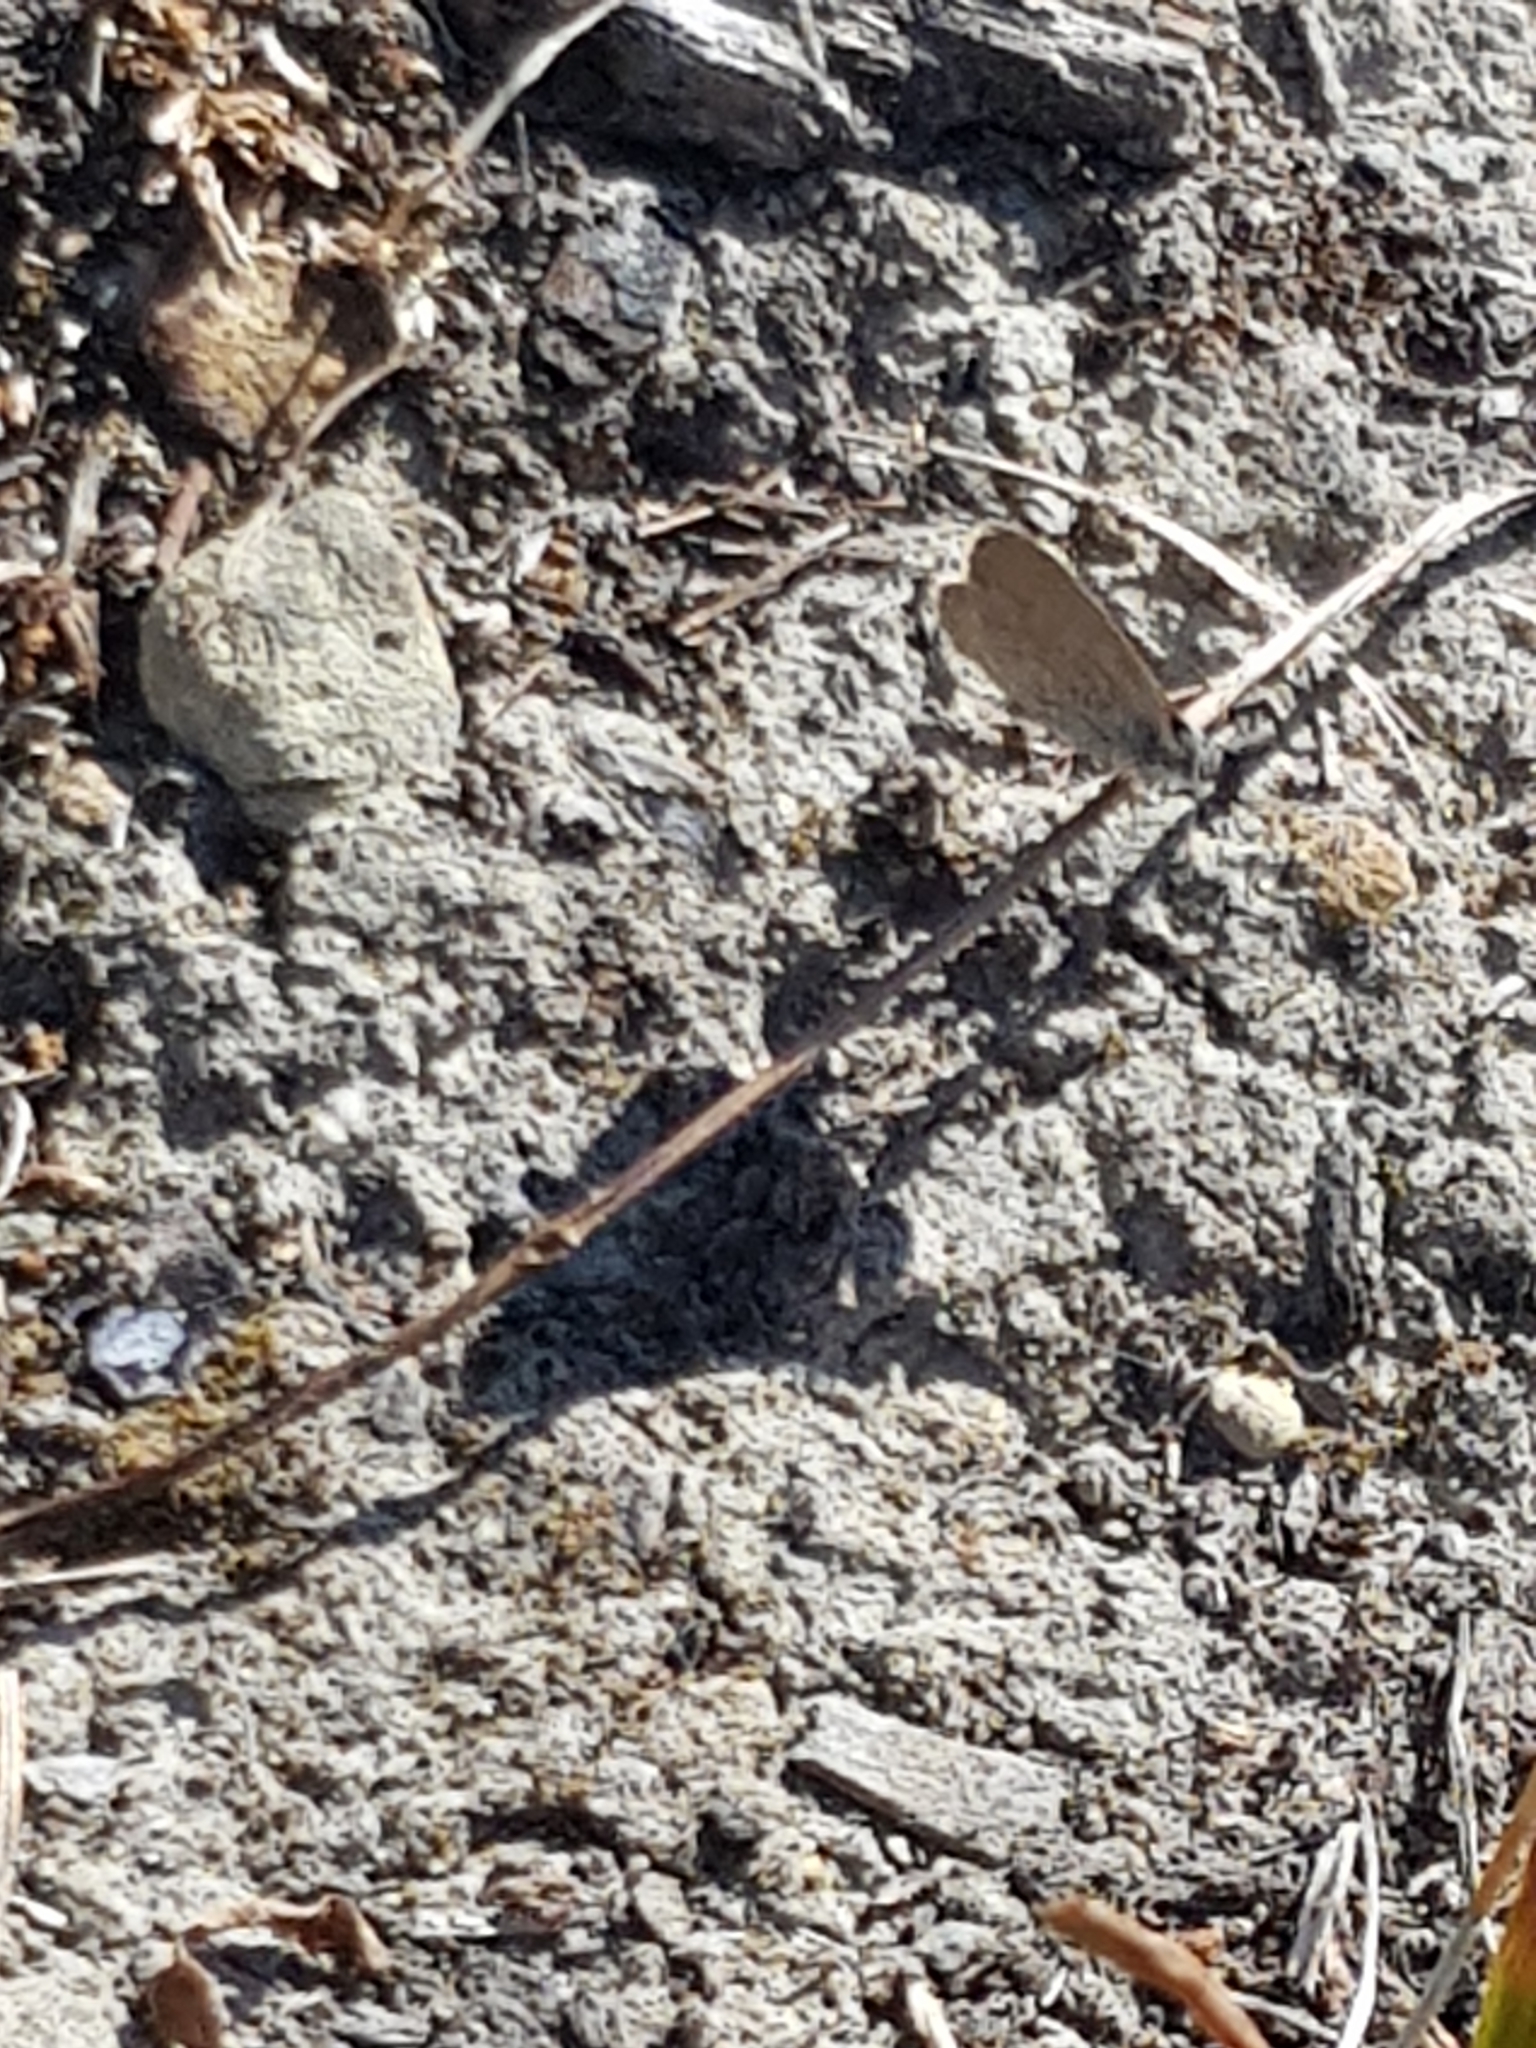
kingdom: Animalia
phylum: Arthropoda
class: Insecta
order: Lepidoptera
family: Lycaenidae
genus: Zizina
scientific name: Zizina labradus
